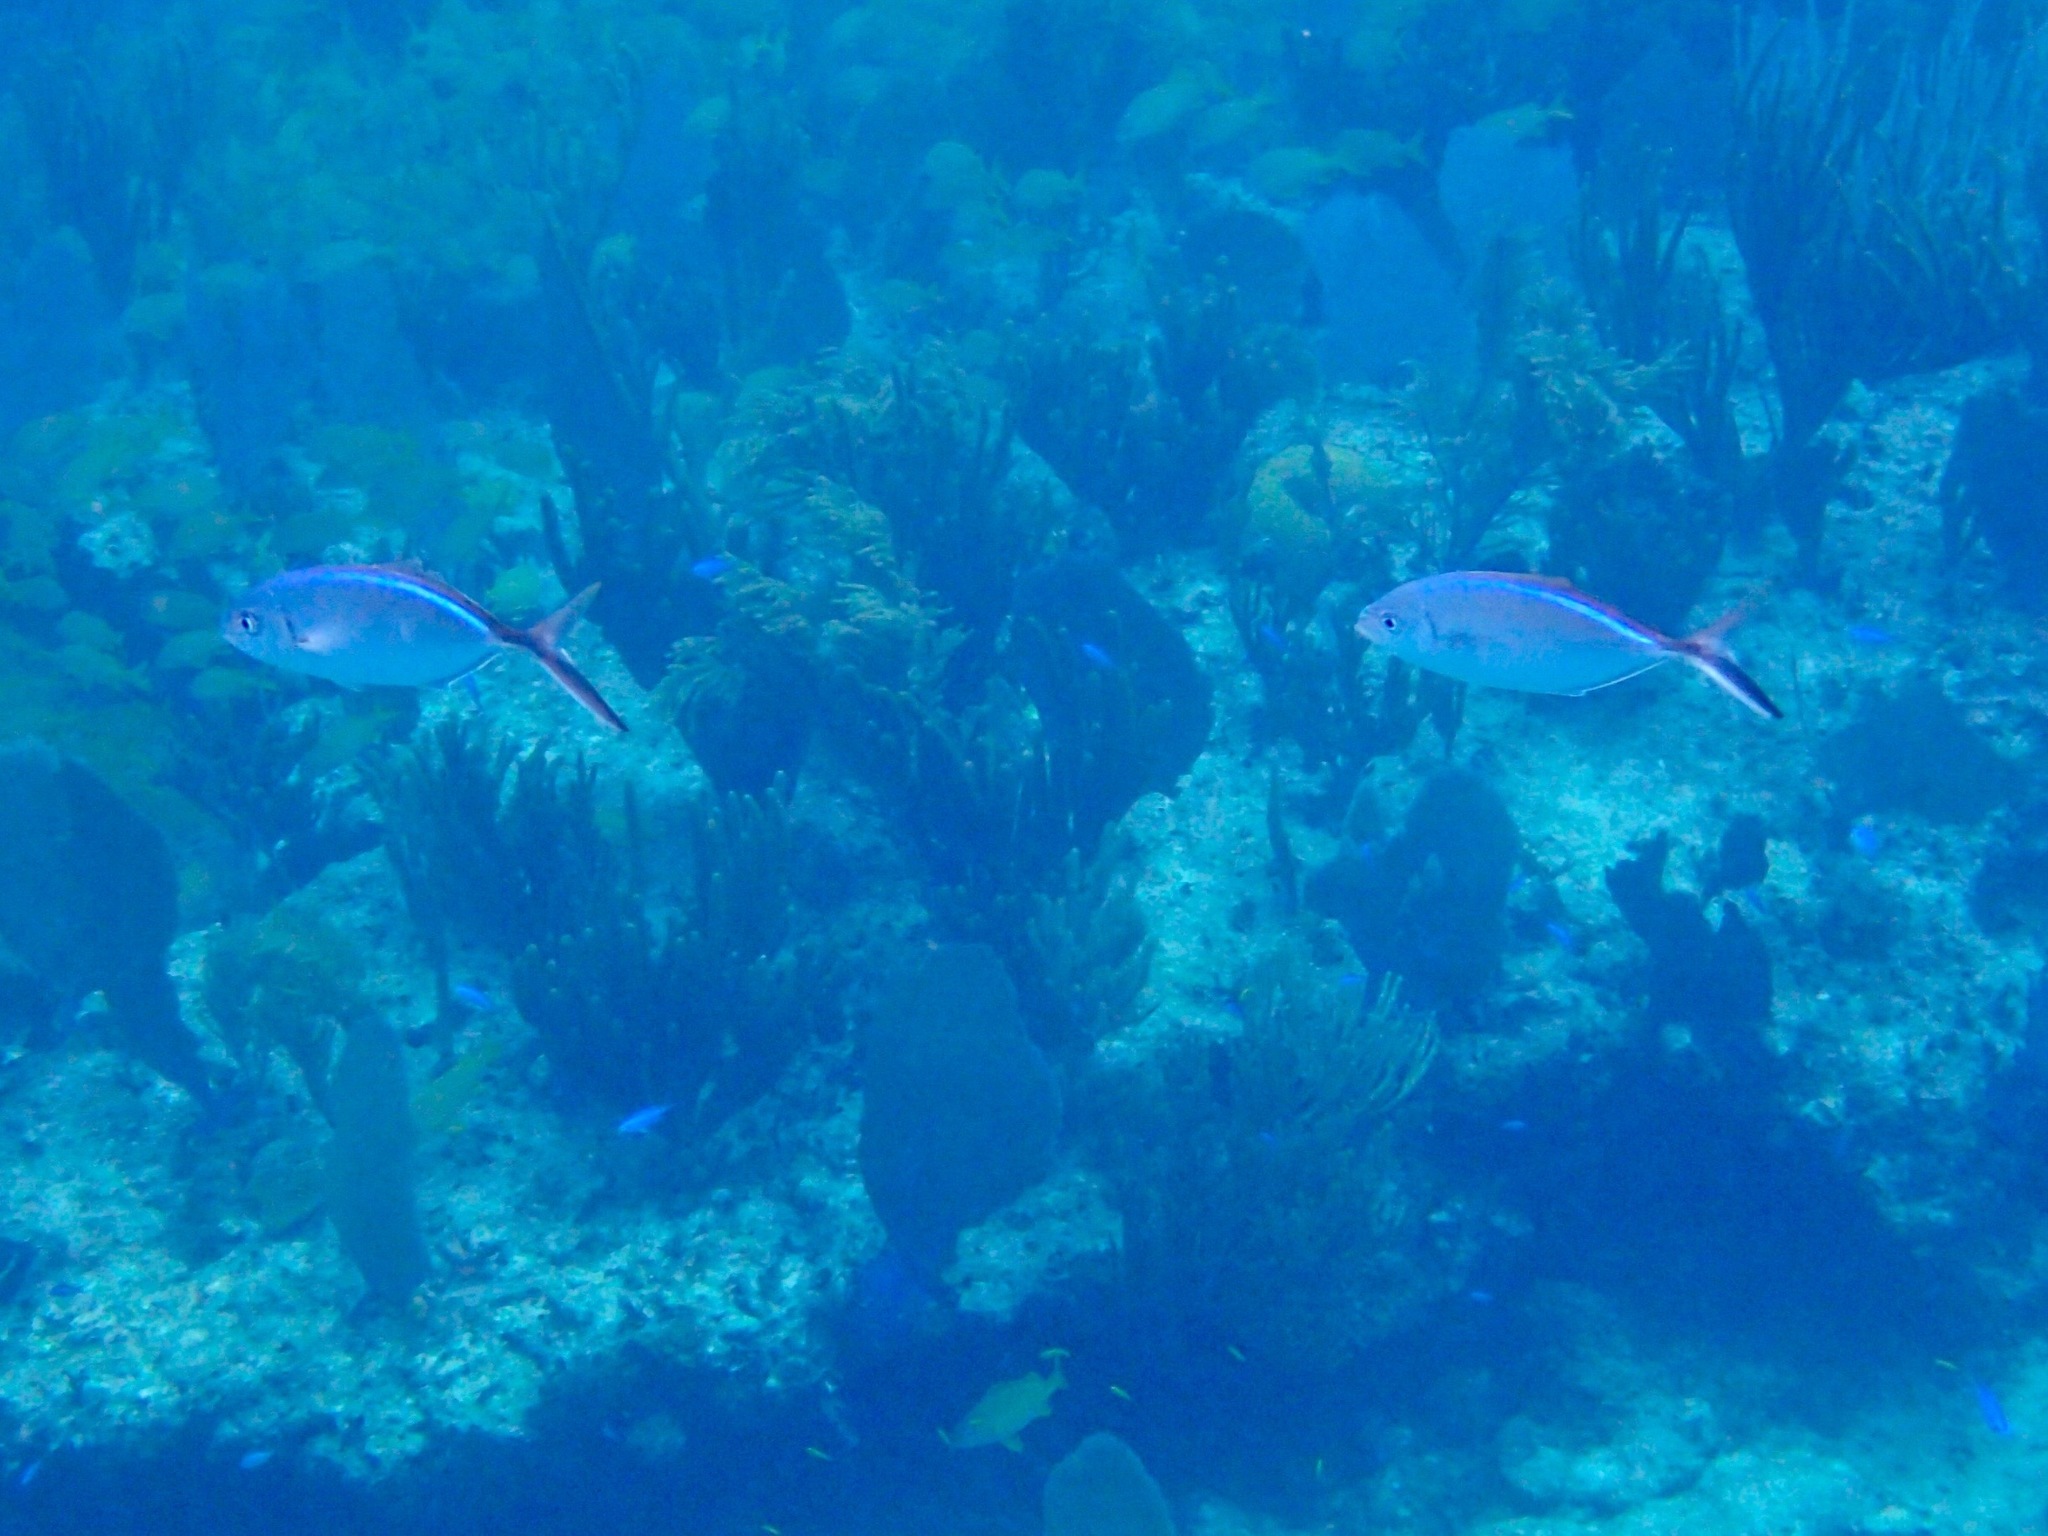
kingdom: Animalia
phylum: Chordata
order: Perciformes
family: Carangidae
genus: Caranx
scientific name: Caranx ruber
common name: Bar jack
